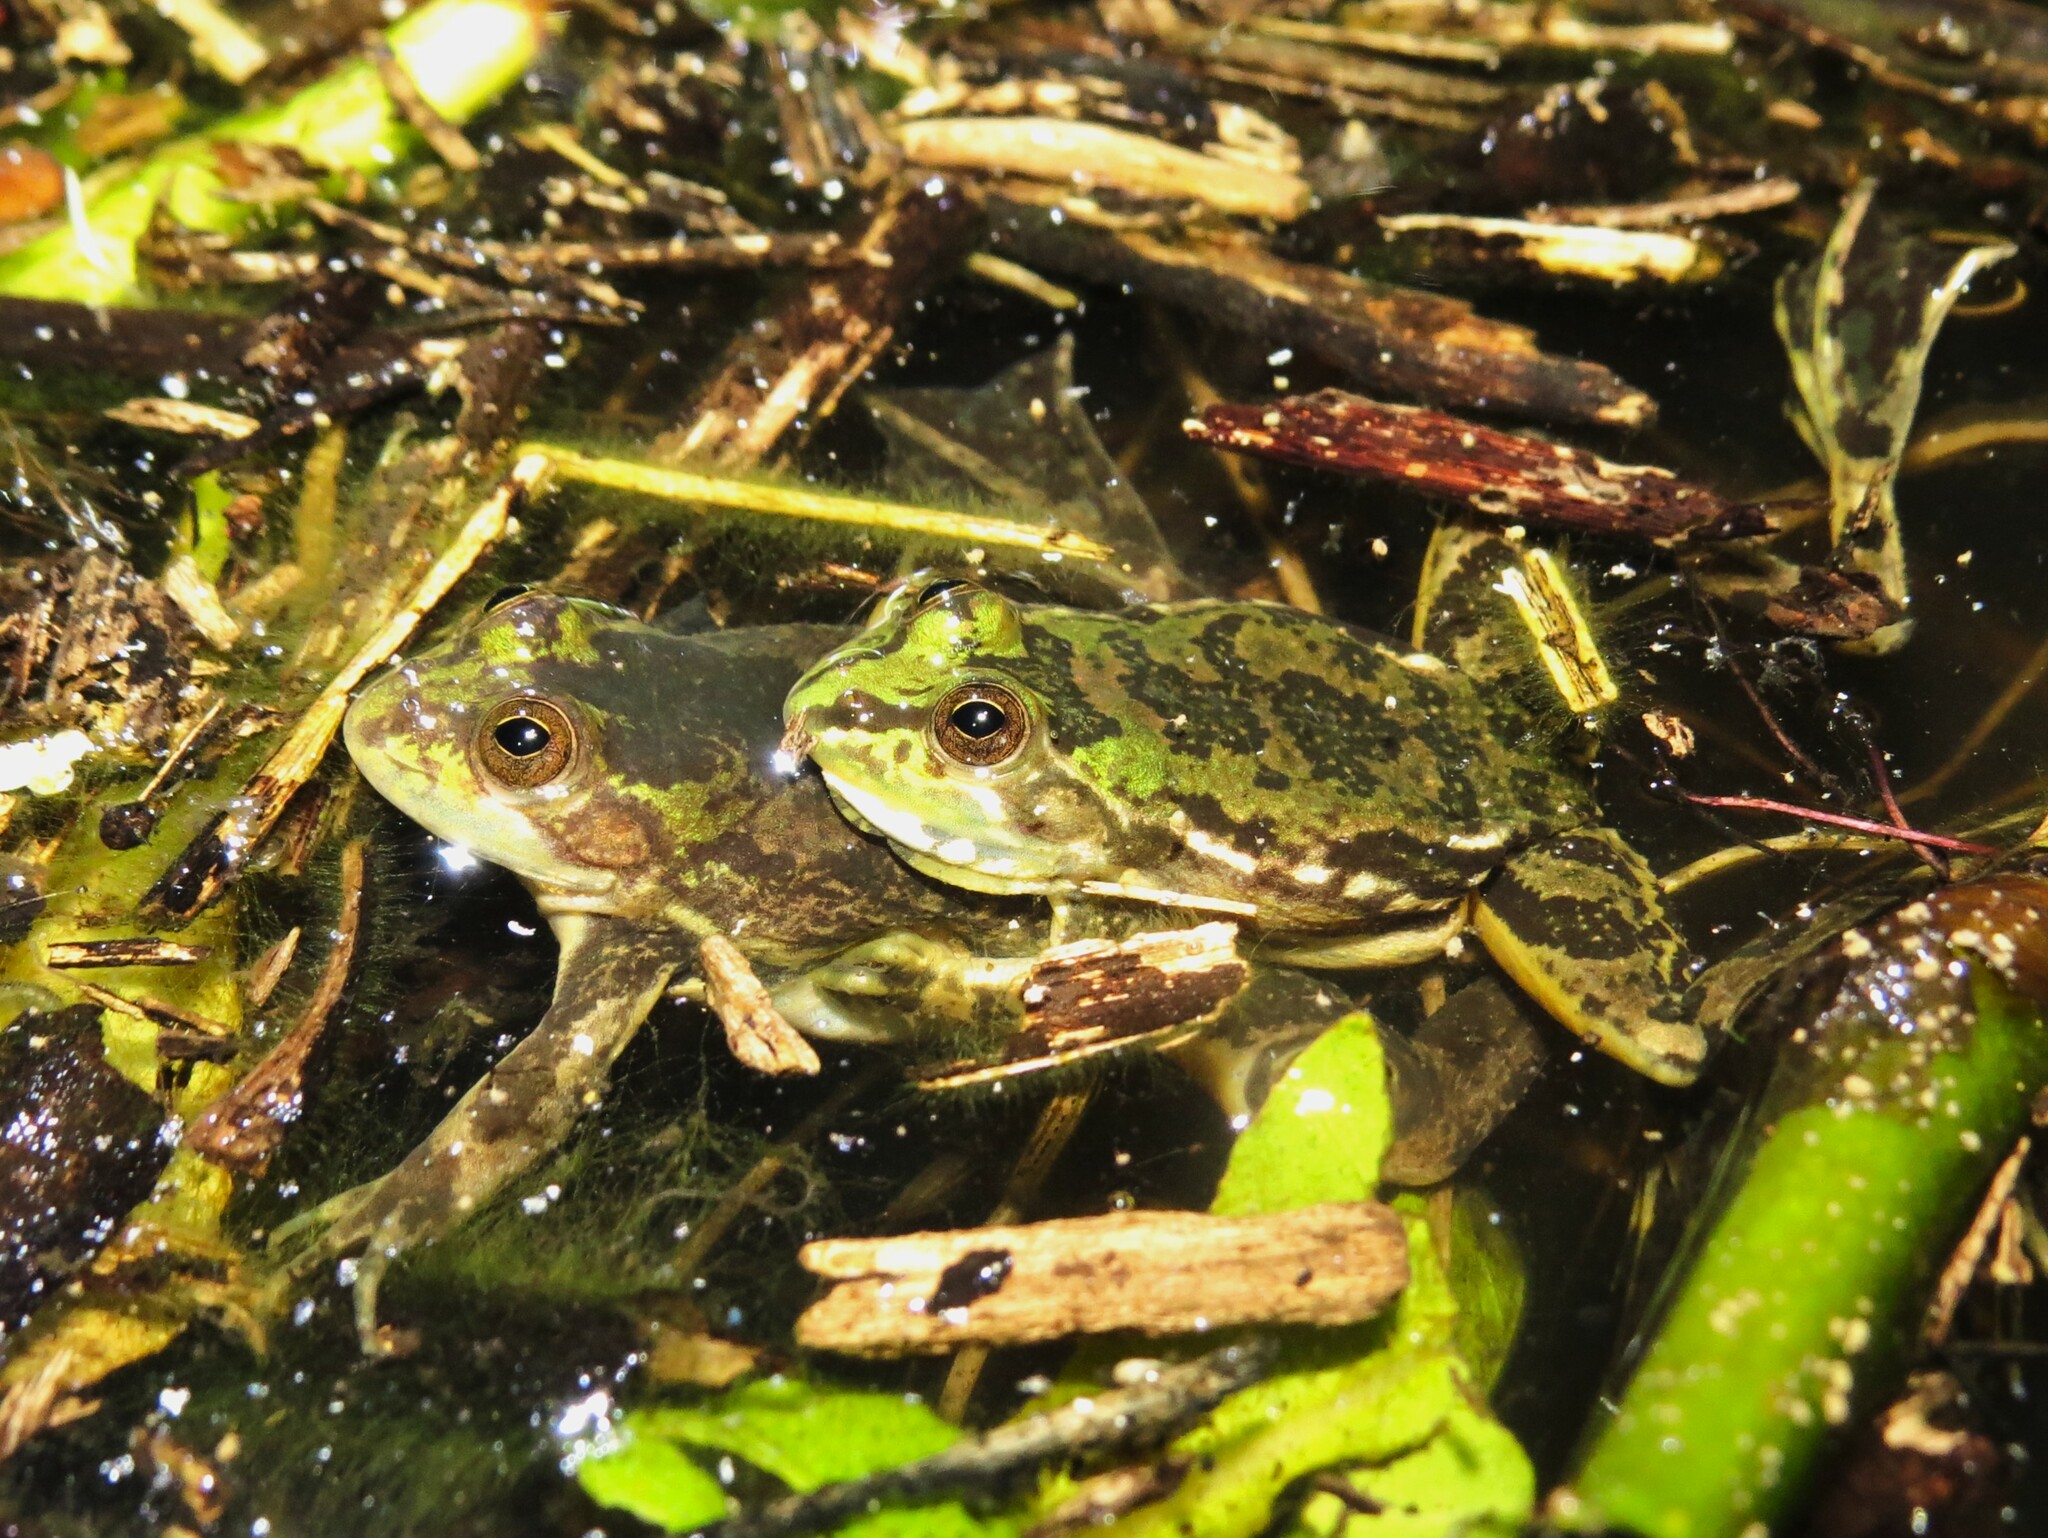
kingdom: Animalia
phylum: Chordata
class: Amphibia
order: Anura
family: Hylidae
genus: Pseudis
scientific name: Pseudis minuta
